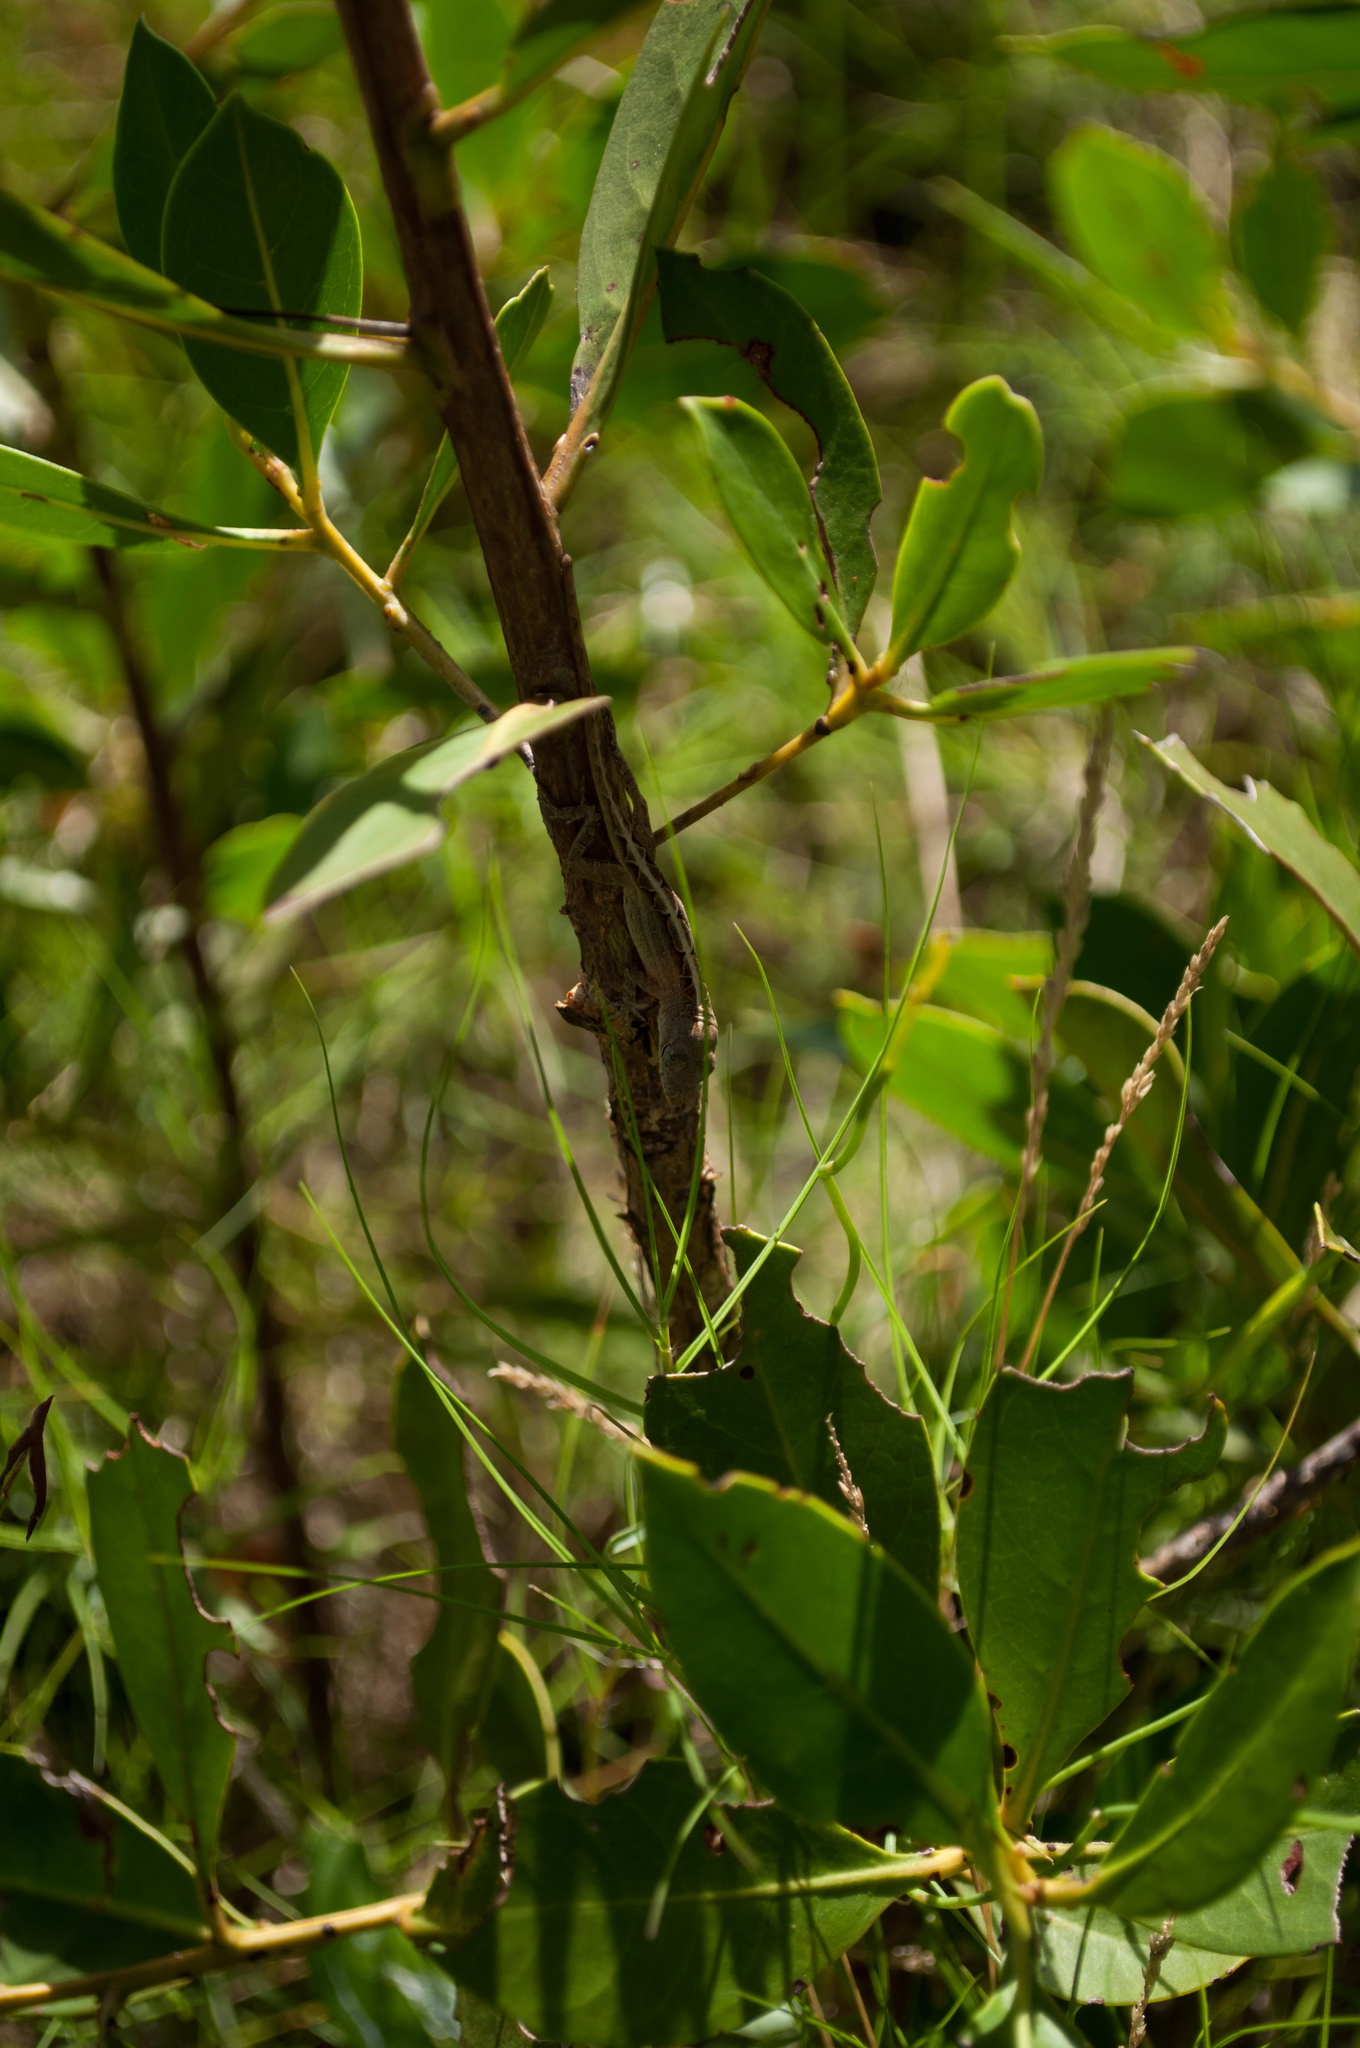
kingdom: Animalia
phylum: Chordata
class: Squamata
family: Dactyloidae
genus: Anolis
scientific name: Anolis sagrei
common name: Brown anole
